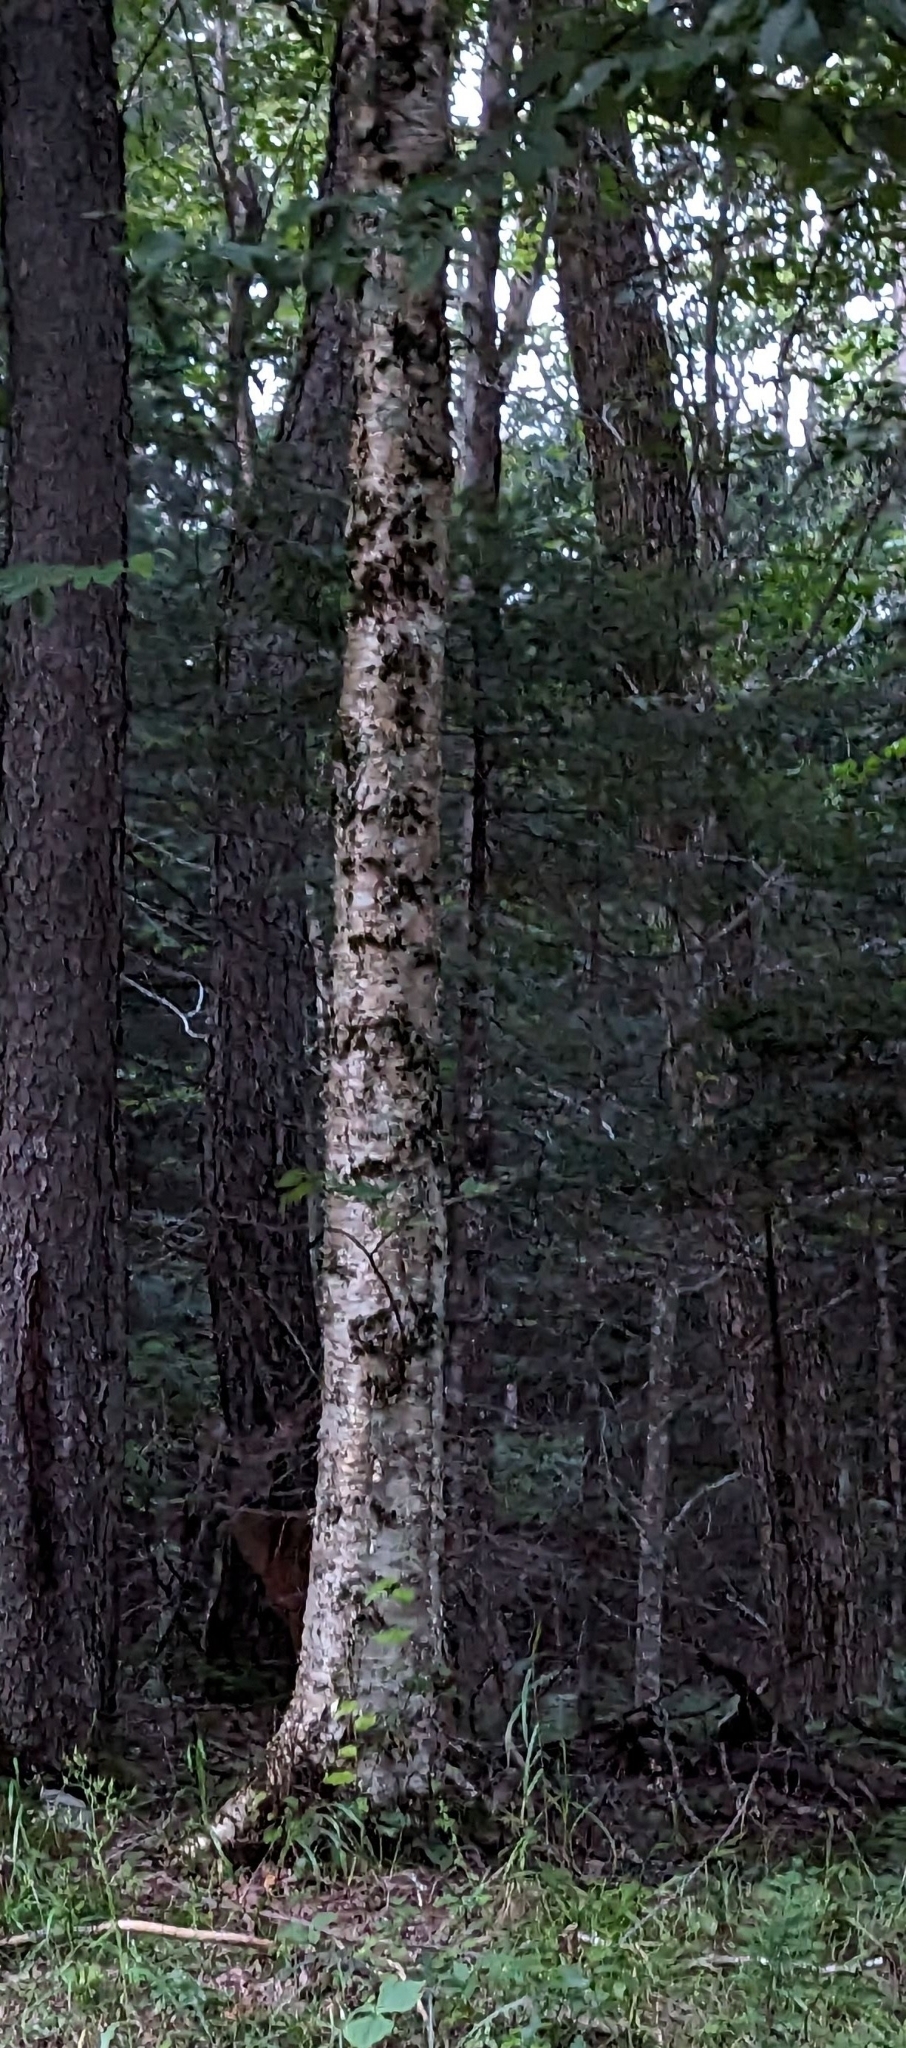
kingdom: Plantae
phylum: Tracheophyta
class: Magnoliopsida
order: Fagales
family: Betulaceae
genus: Betula
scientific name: Betula alleghaniensis
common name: Yellow birch
